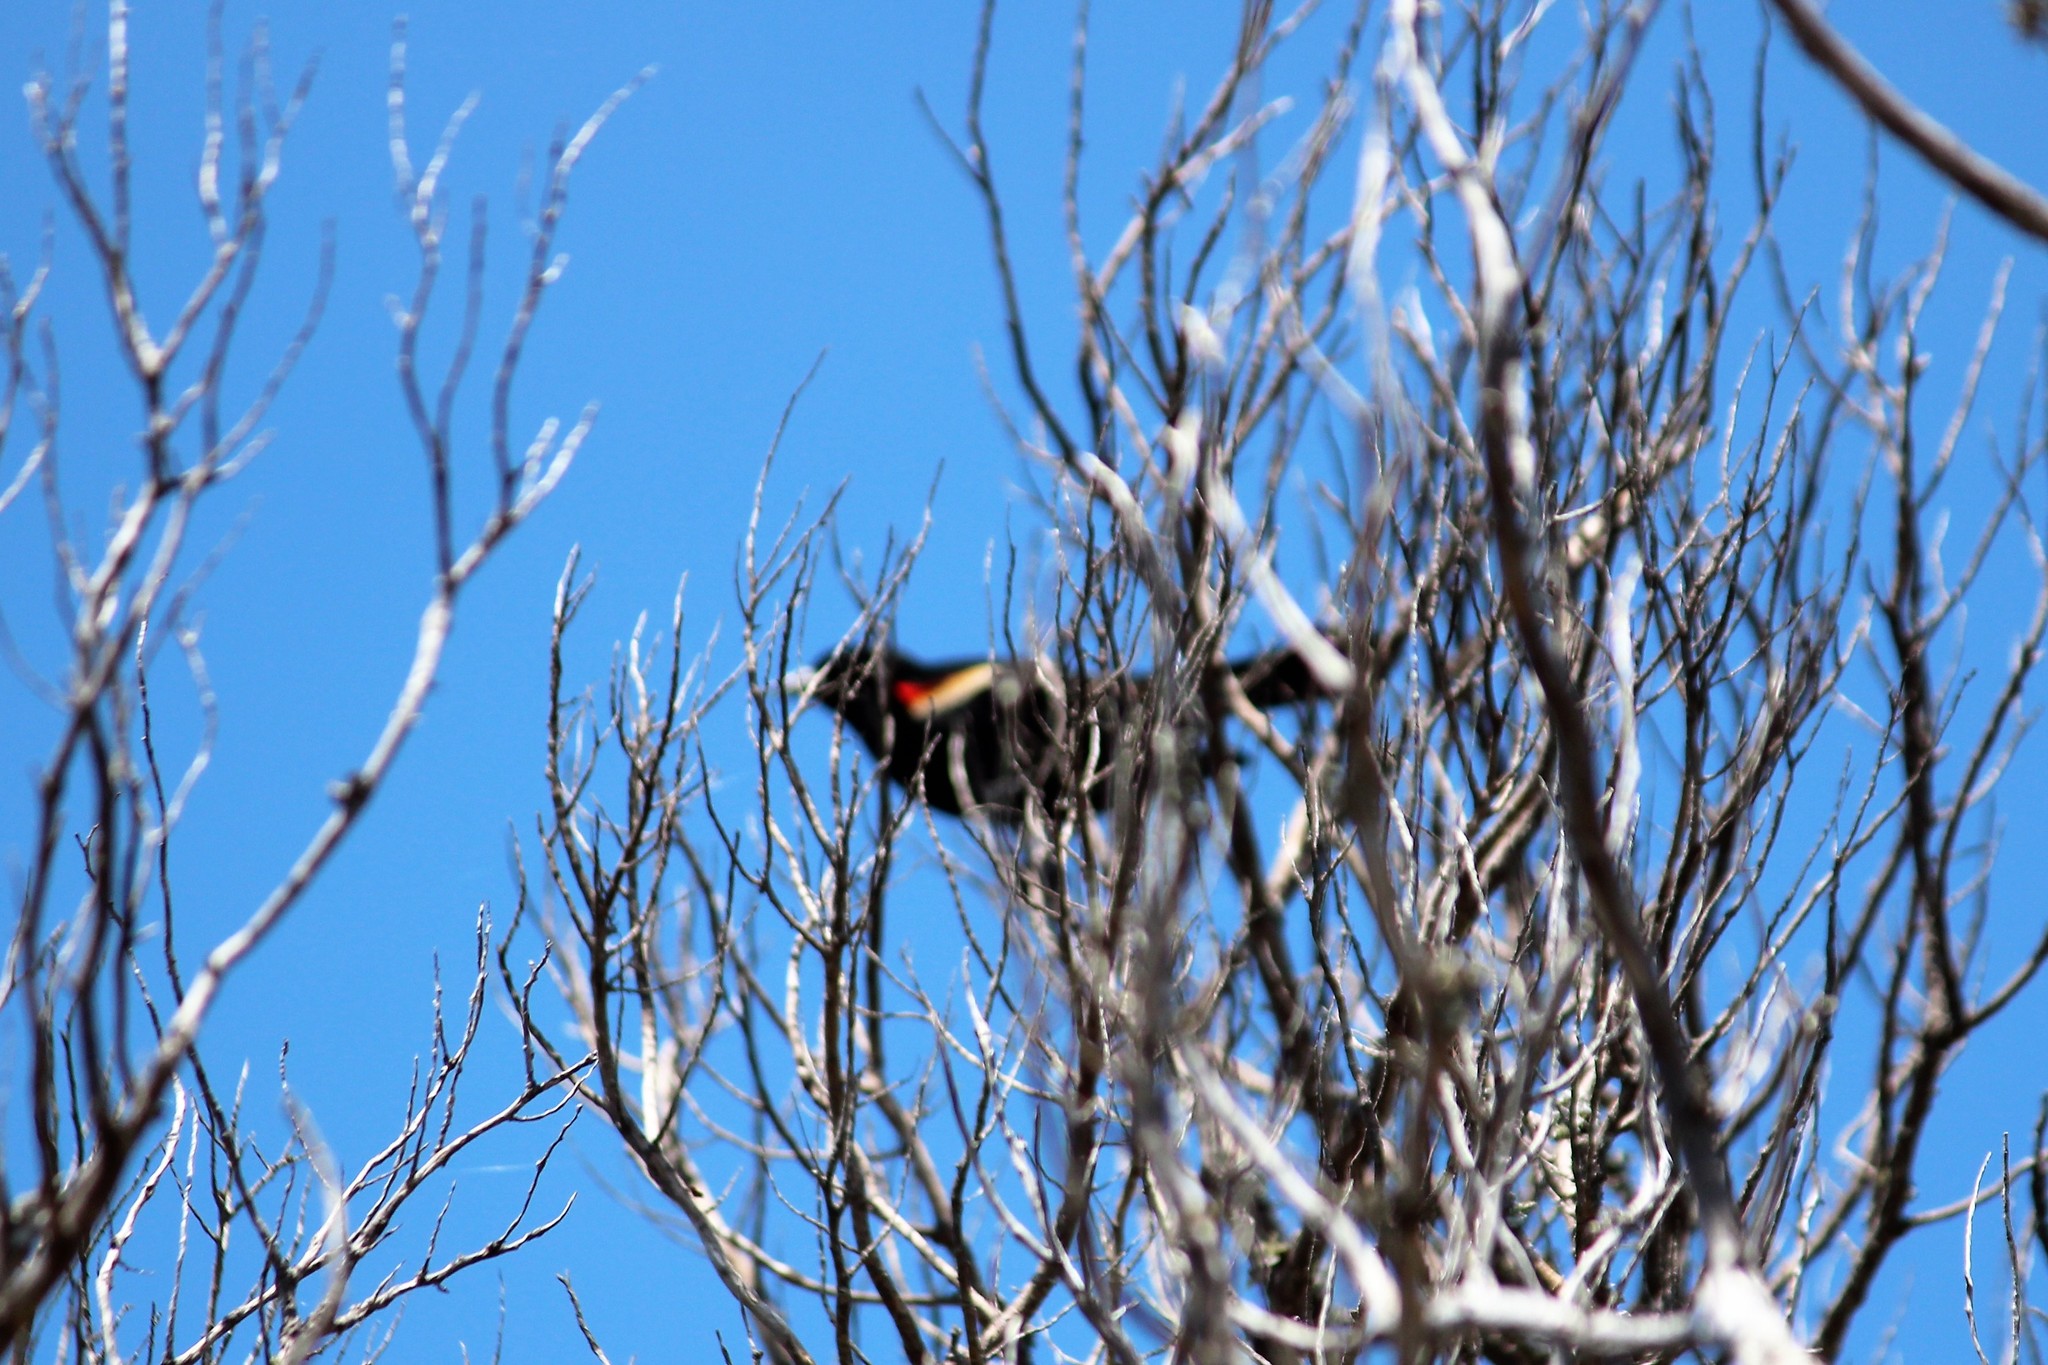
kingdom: Animalia
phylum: Chordata
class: Aves
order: Passeriformes
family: Icteridae
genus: Agelaius
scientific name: Agelaius phoeniceus
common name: Red-winged blackbird
